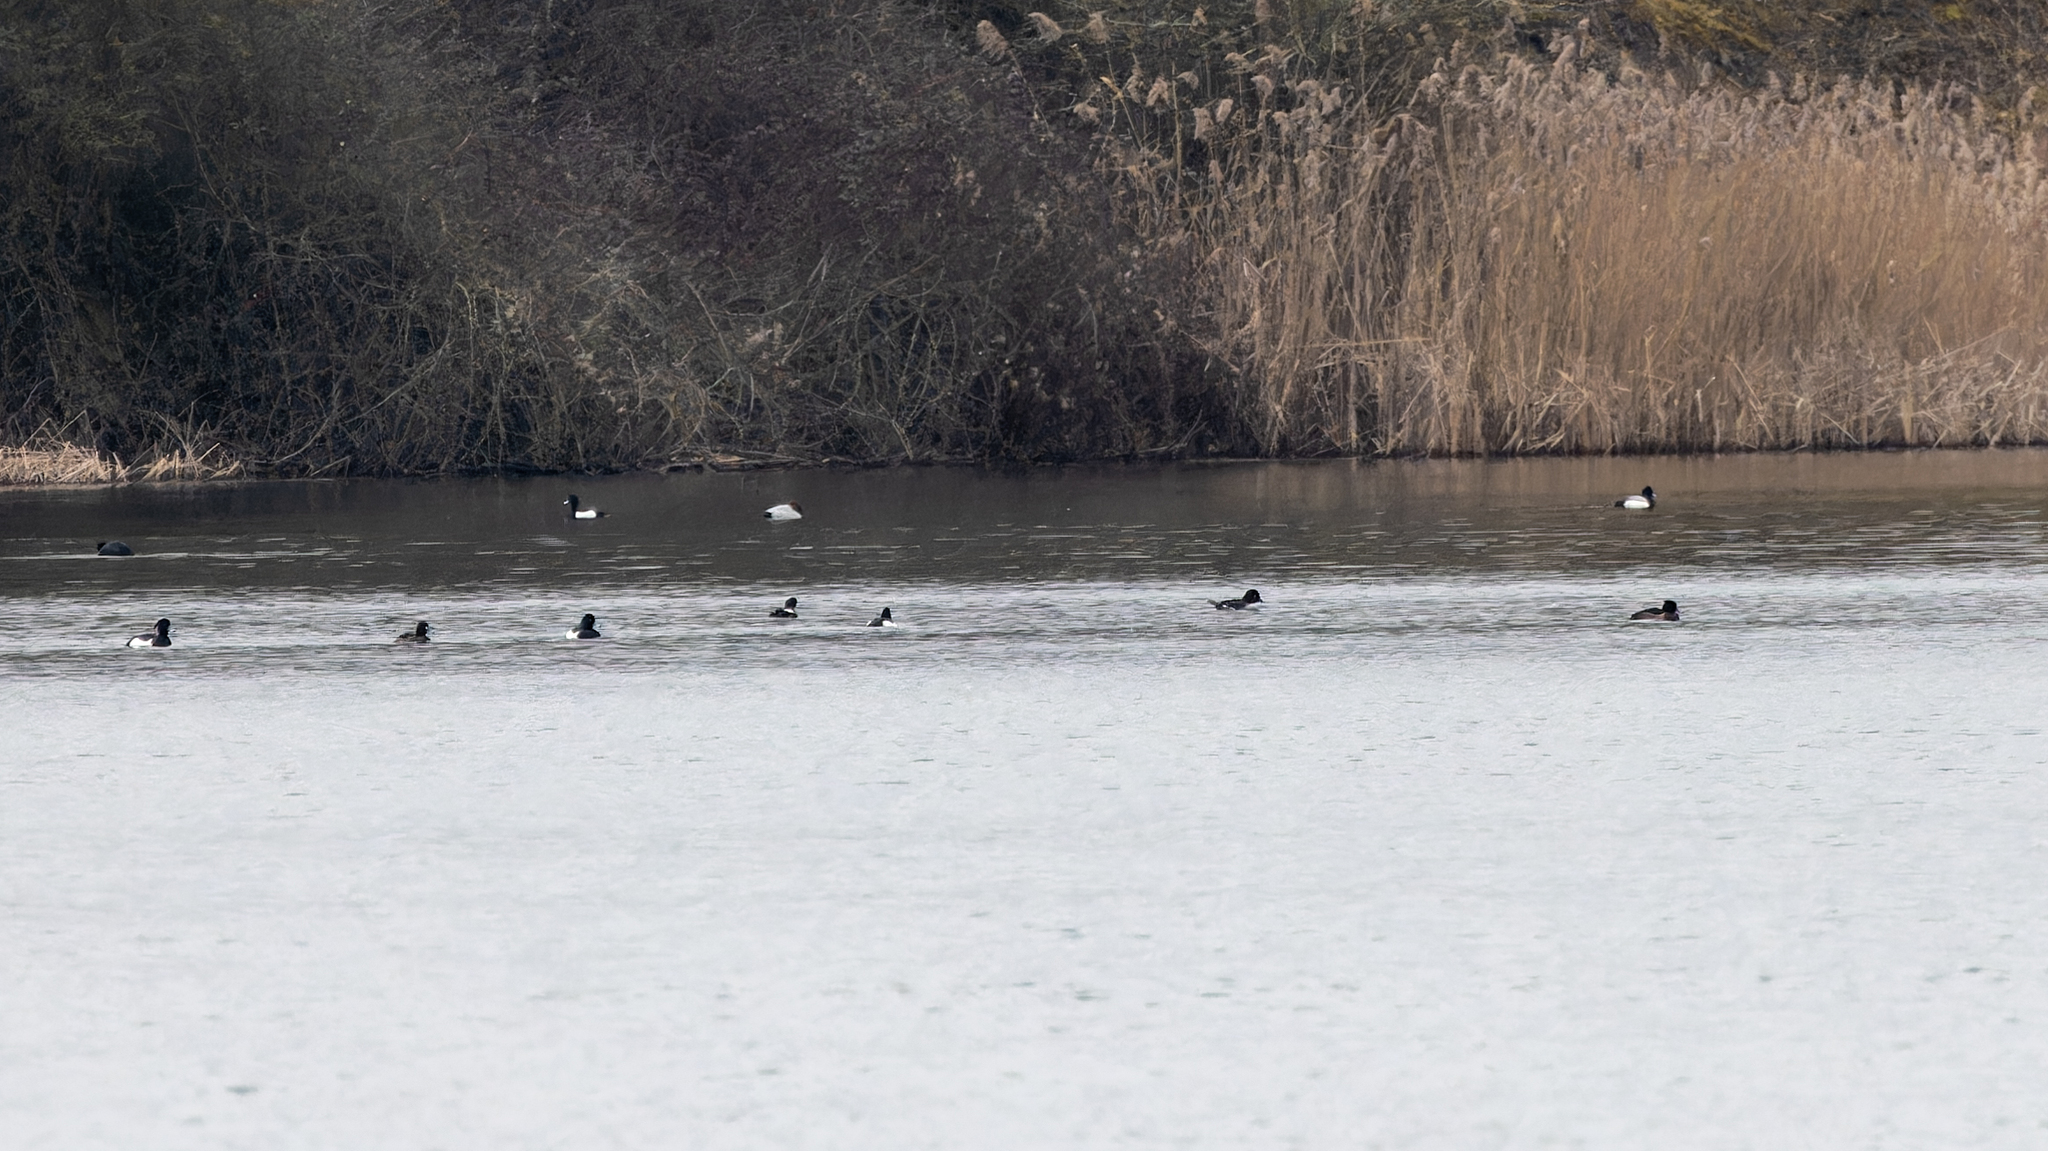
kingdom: Animalia
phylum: Chordata
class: Aves
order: Anseriformes
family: Anatidae
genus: Aythya
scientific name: Aythya ferina
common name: Common pochard
